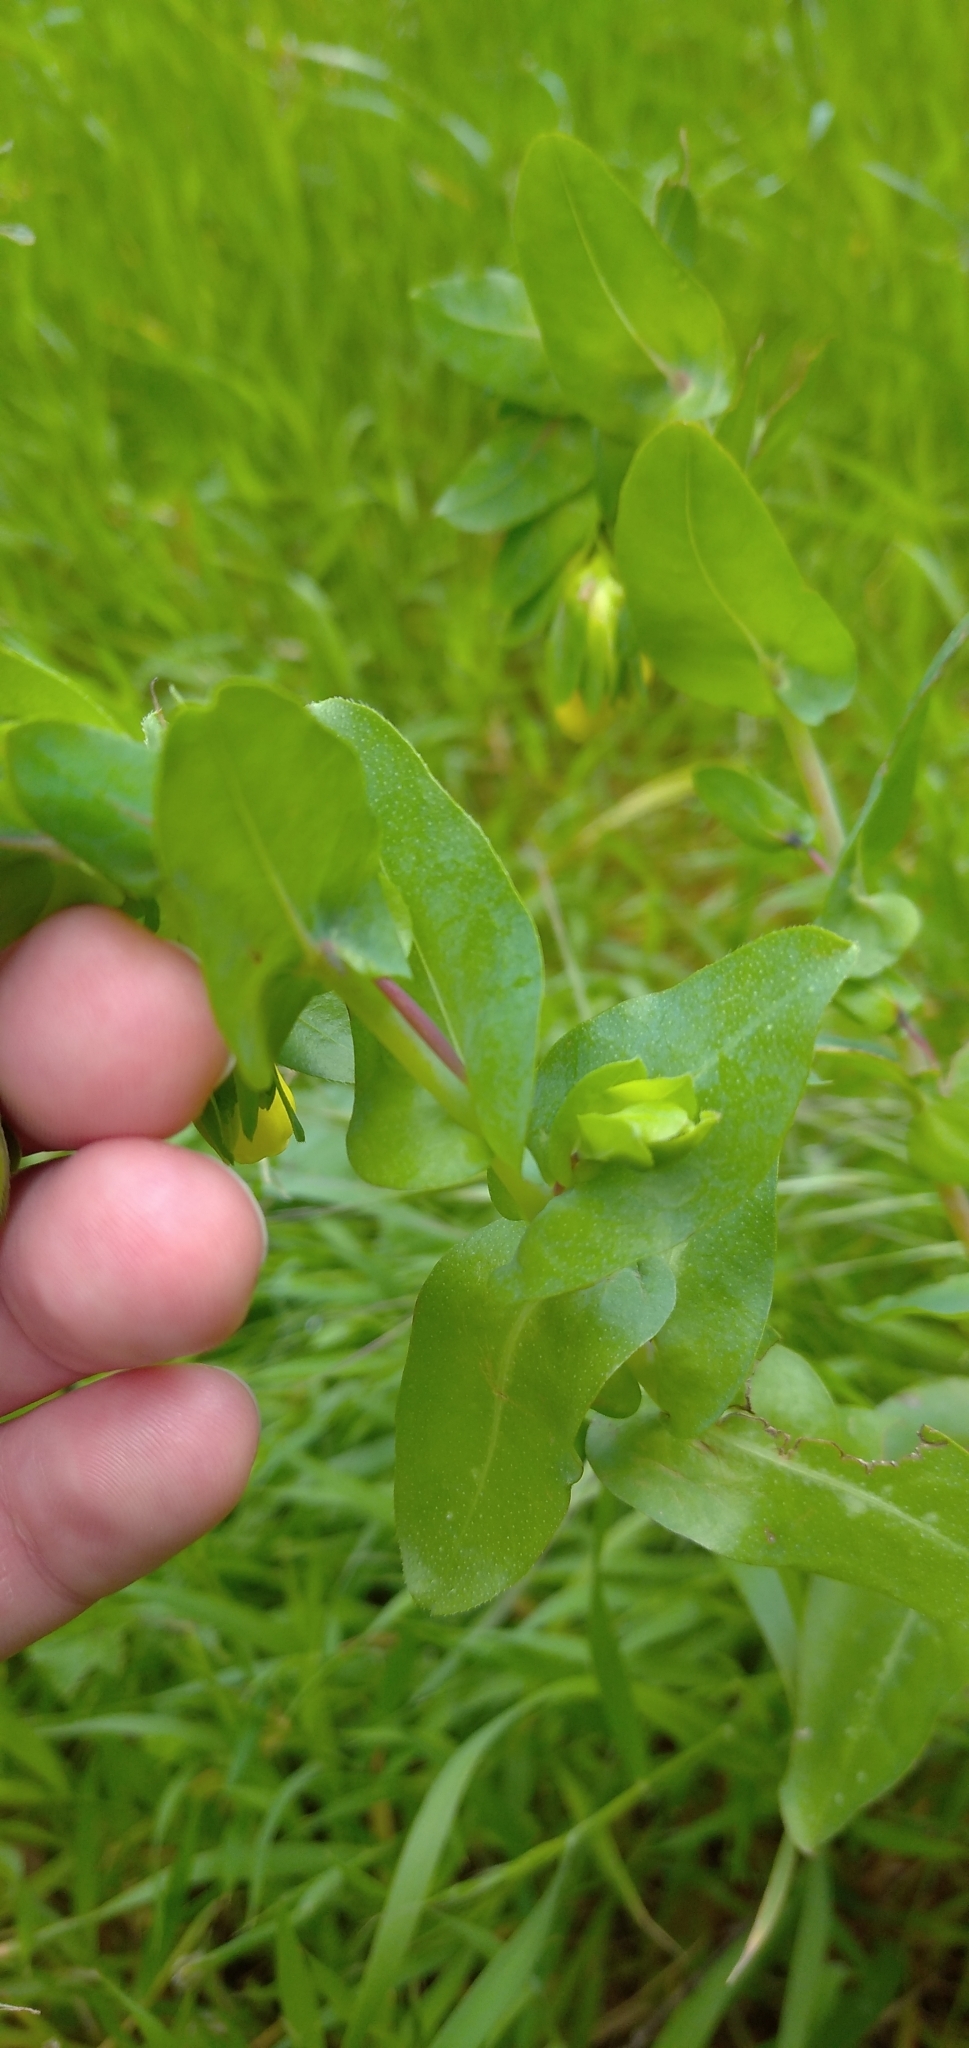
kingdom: Plantae
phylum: Tracheophyta
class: Magnoliopsida
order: Boraginales
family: Boraginaceae
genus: Cerinthe
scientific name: Cerinthe major
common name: Greater honeywort
